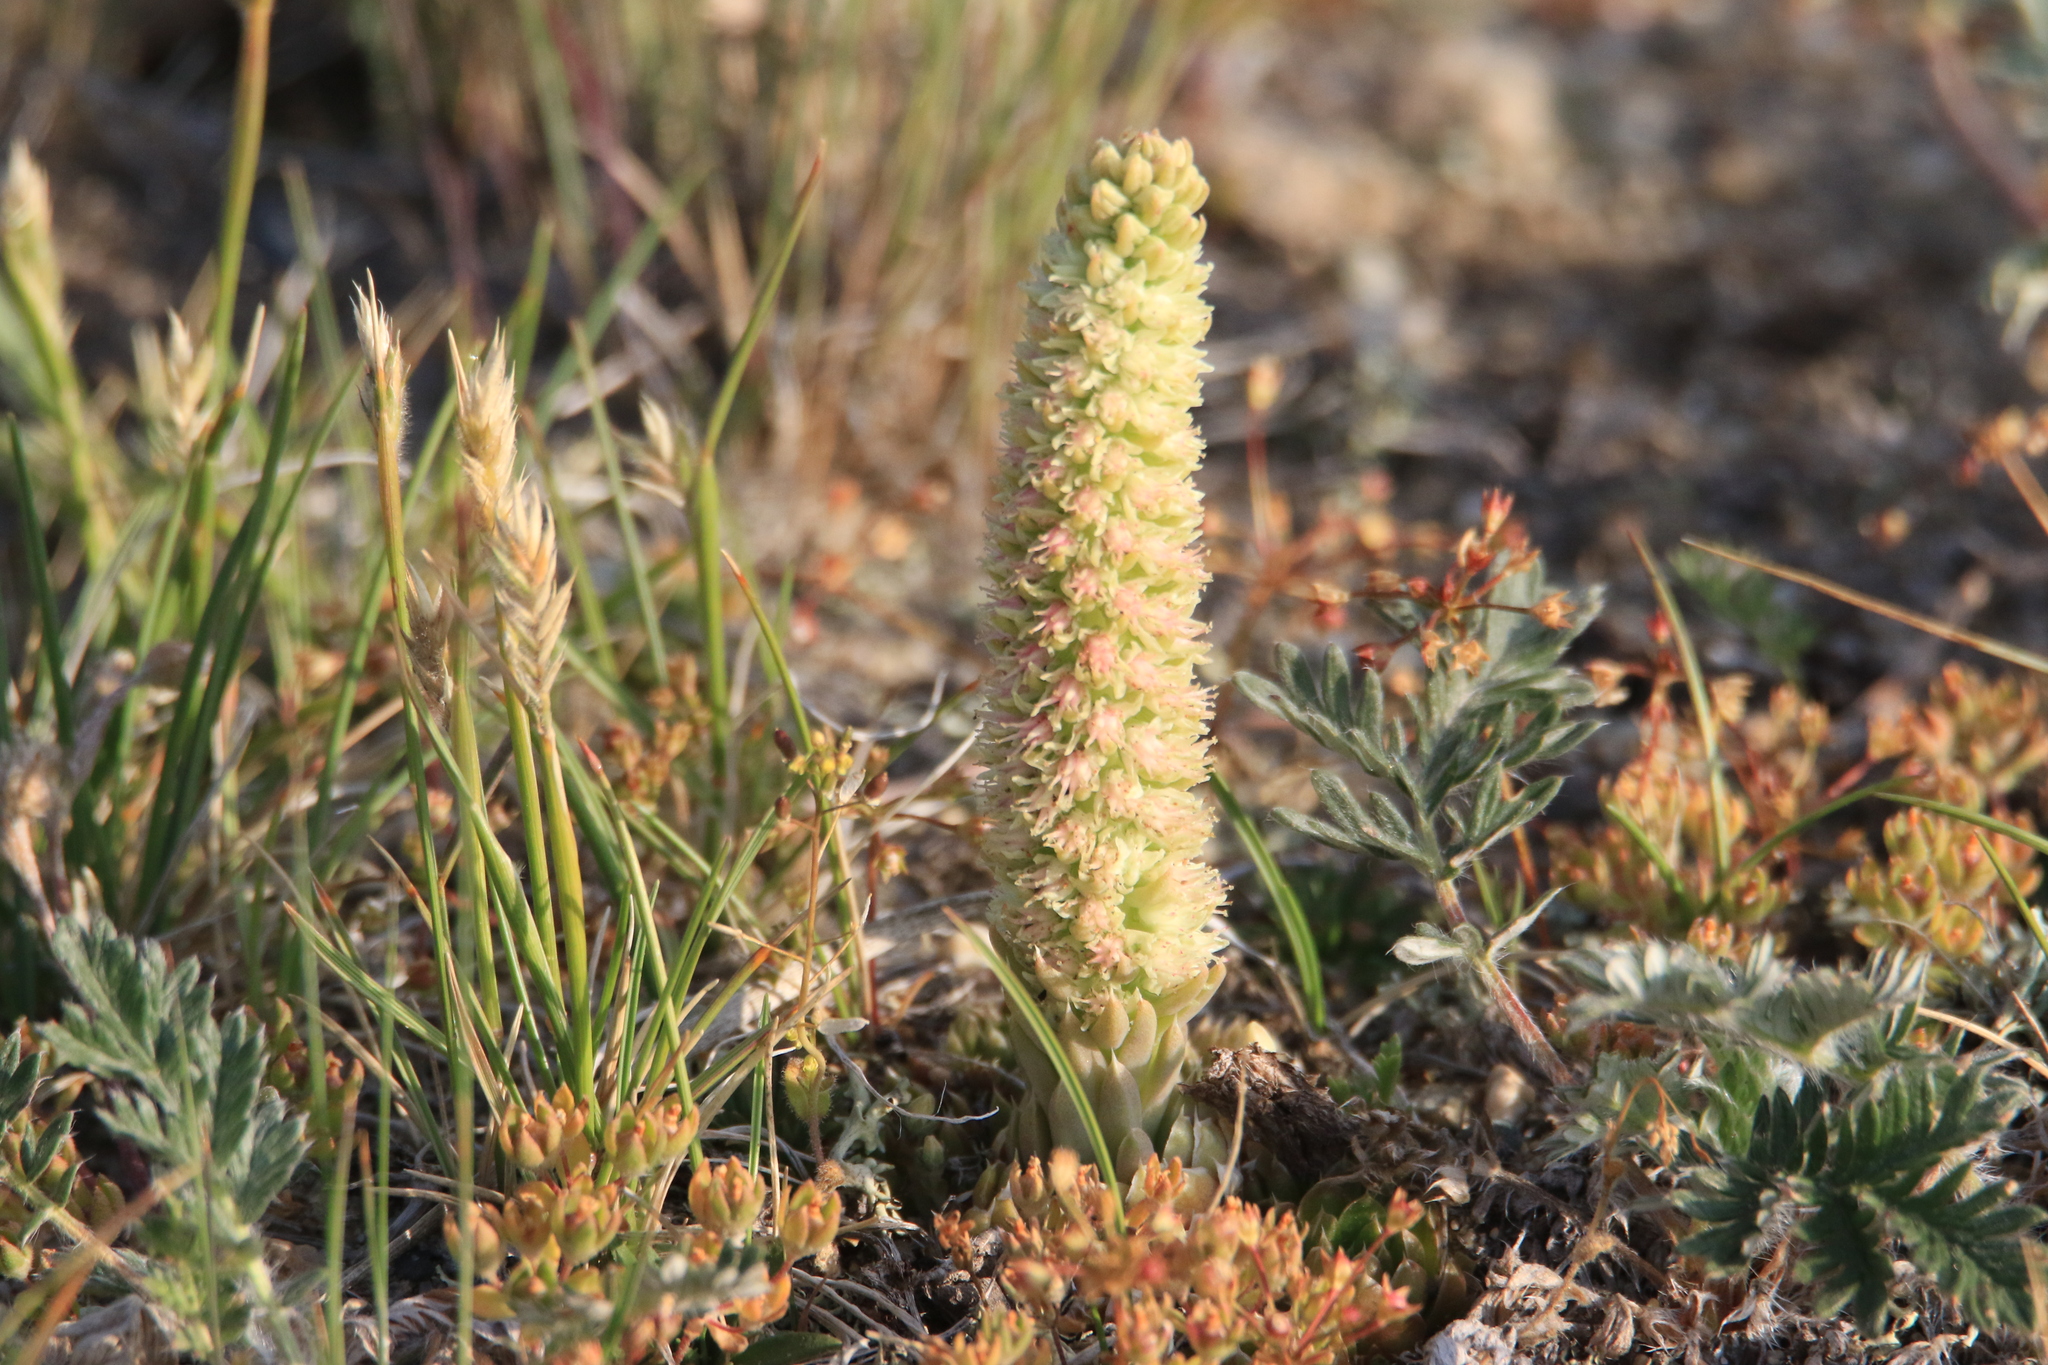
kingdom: Plantae
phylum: Tracheophyta
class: Magnoliopsida
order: Saxifragales
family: Crassulaceae
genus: Orostachys
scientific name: Orostachys spinosa
